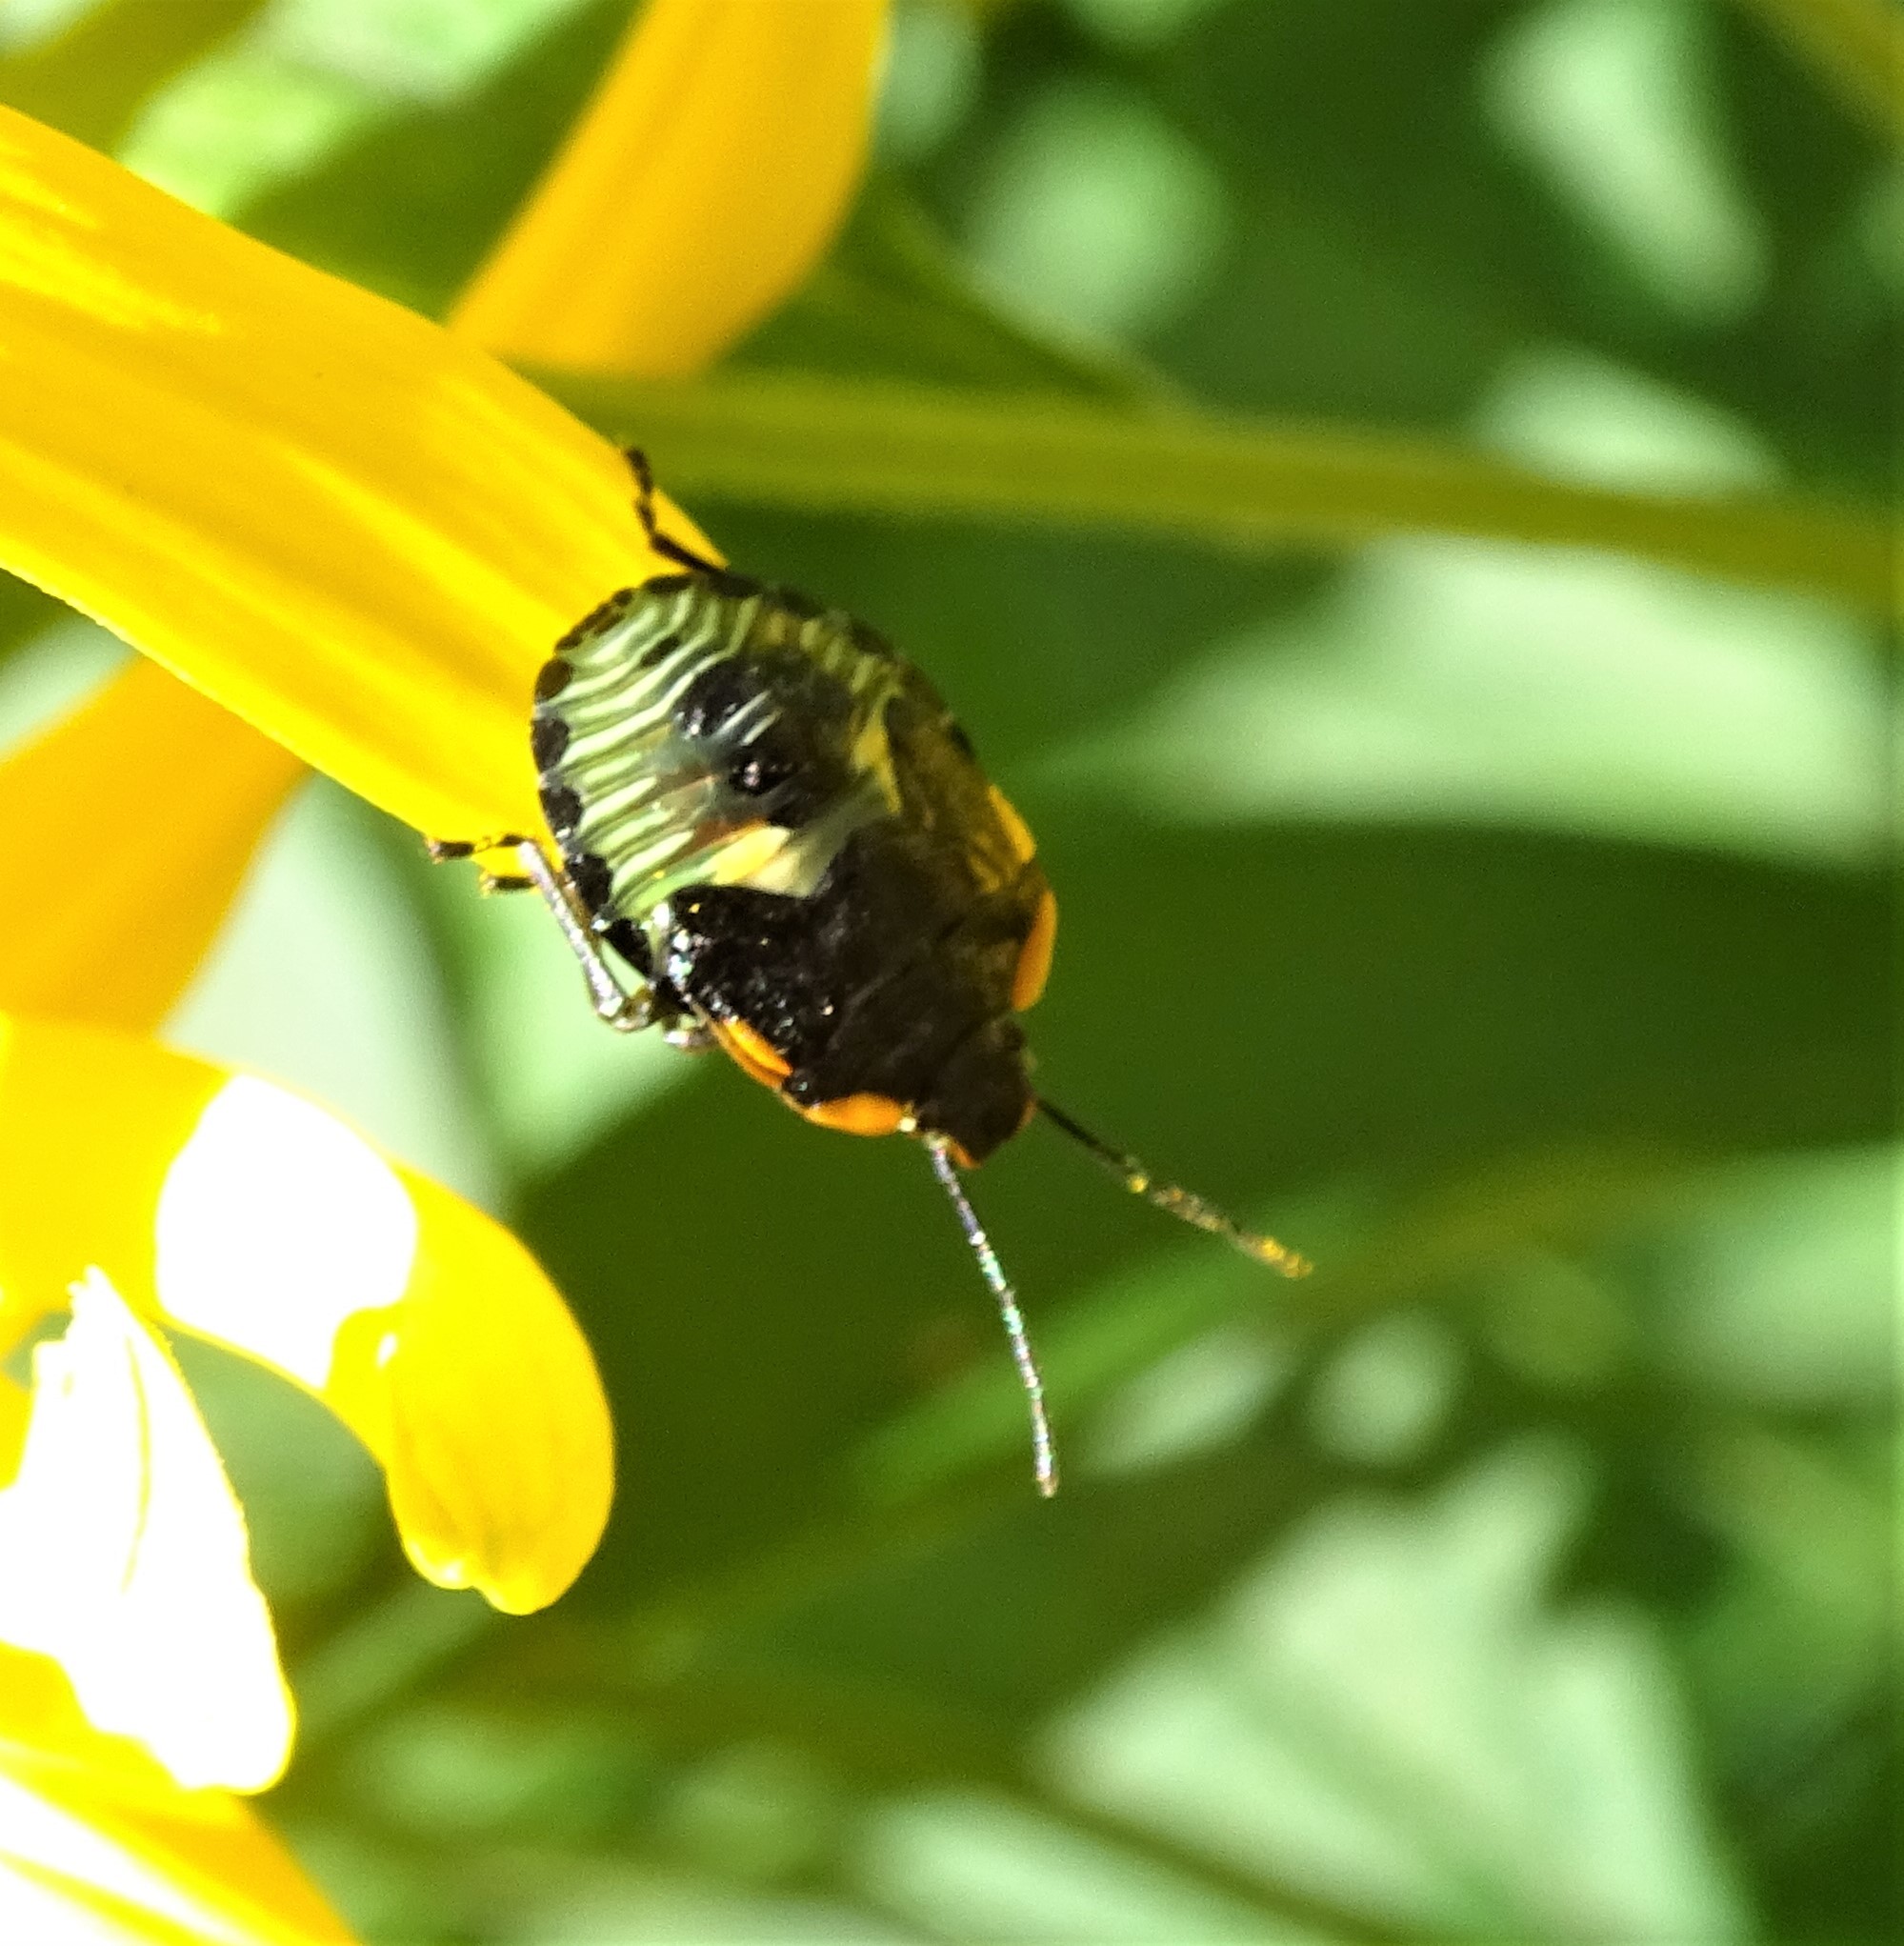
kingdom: Animalia
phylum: Arthropoda
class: Insecta
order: Hemiptera
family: Pentatomidae
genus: Chinavia
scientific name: Chinavia hilaris
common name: Green stink bug
